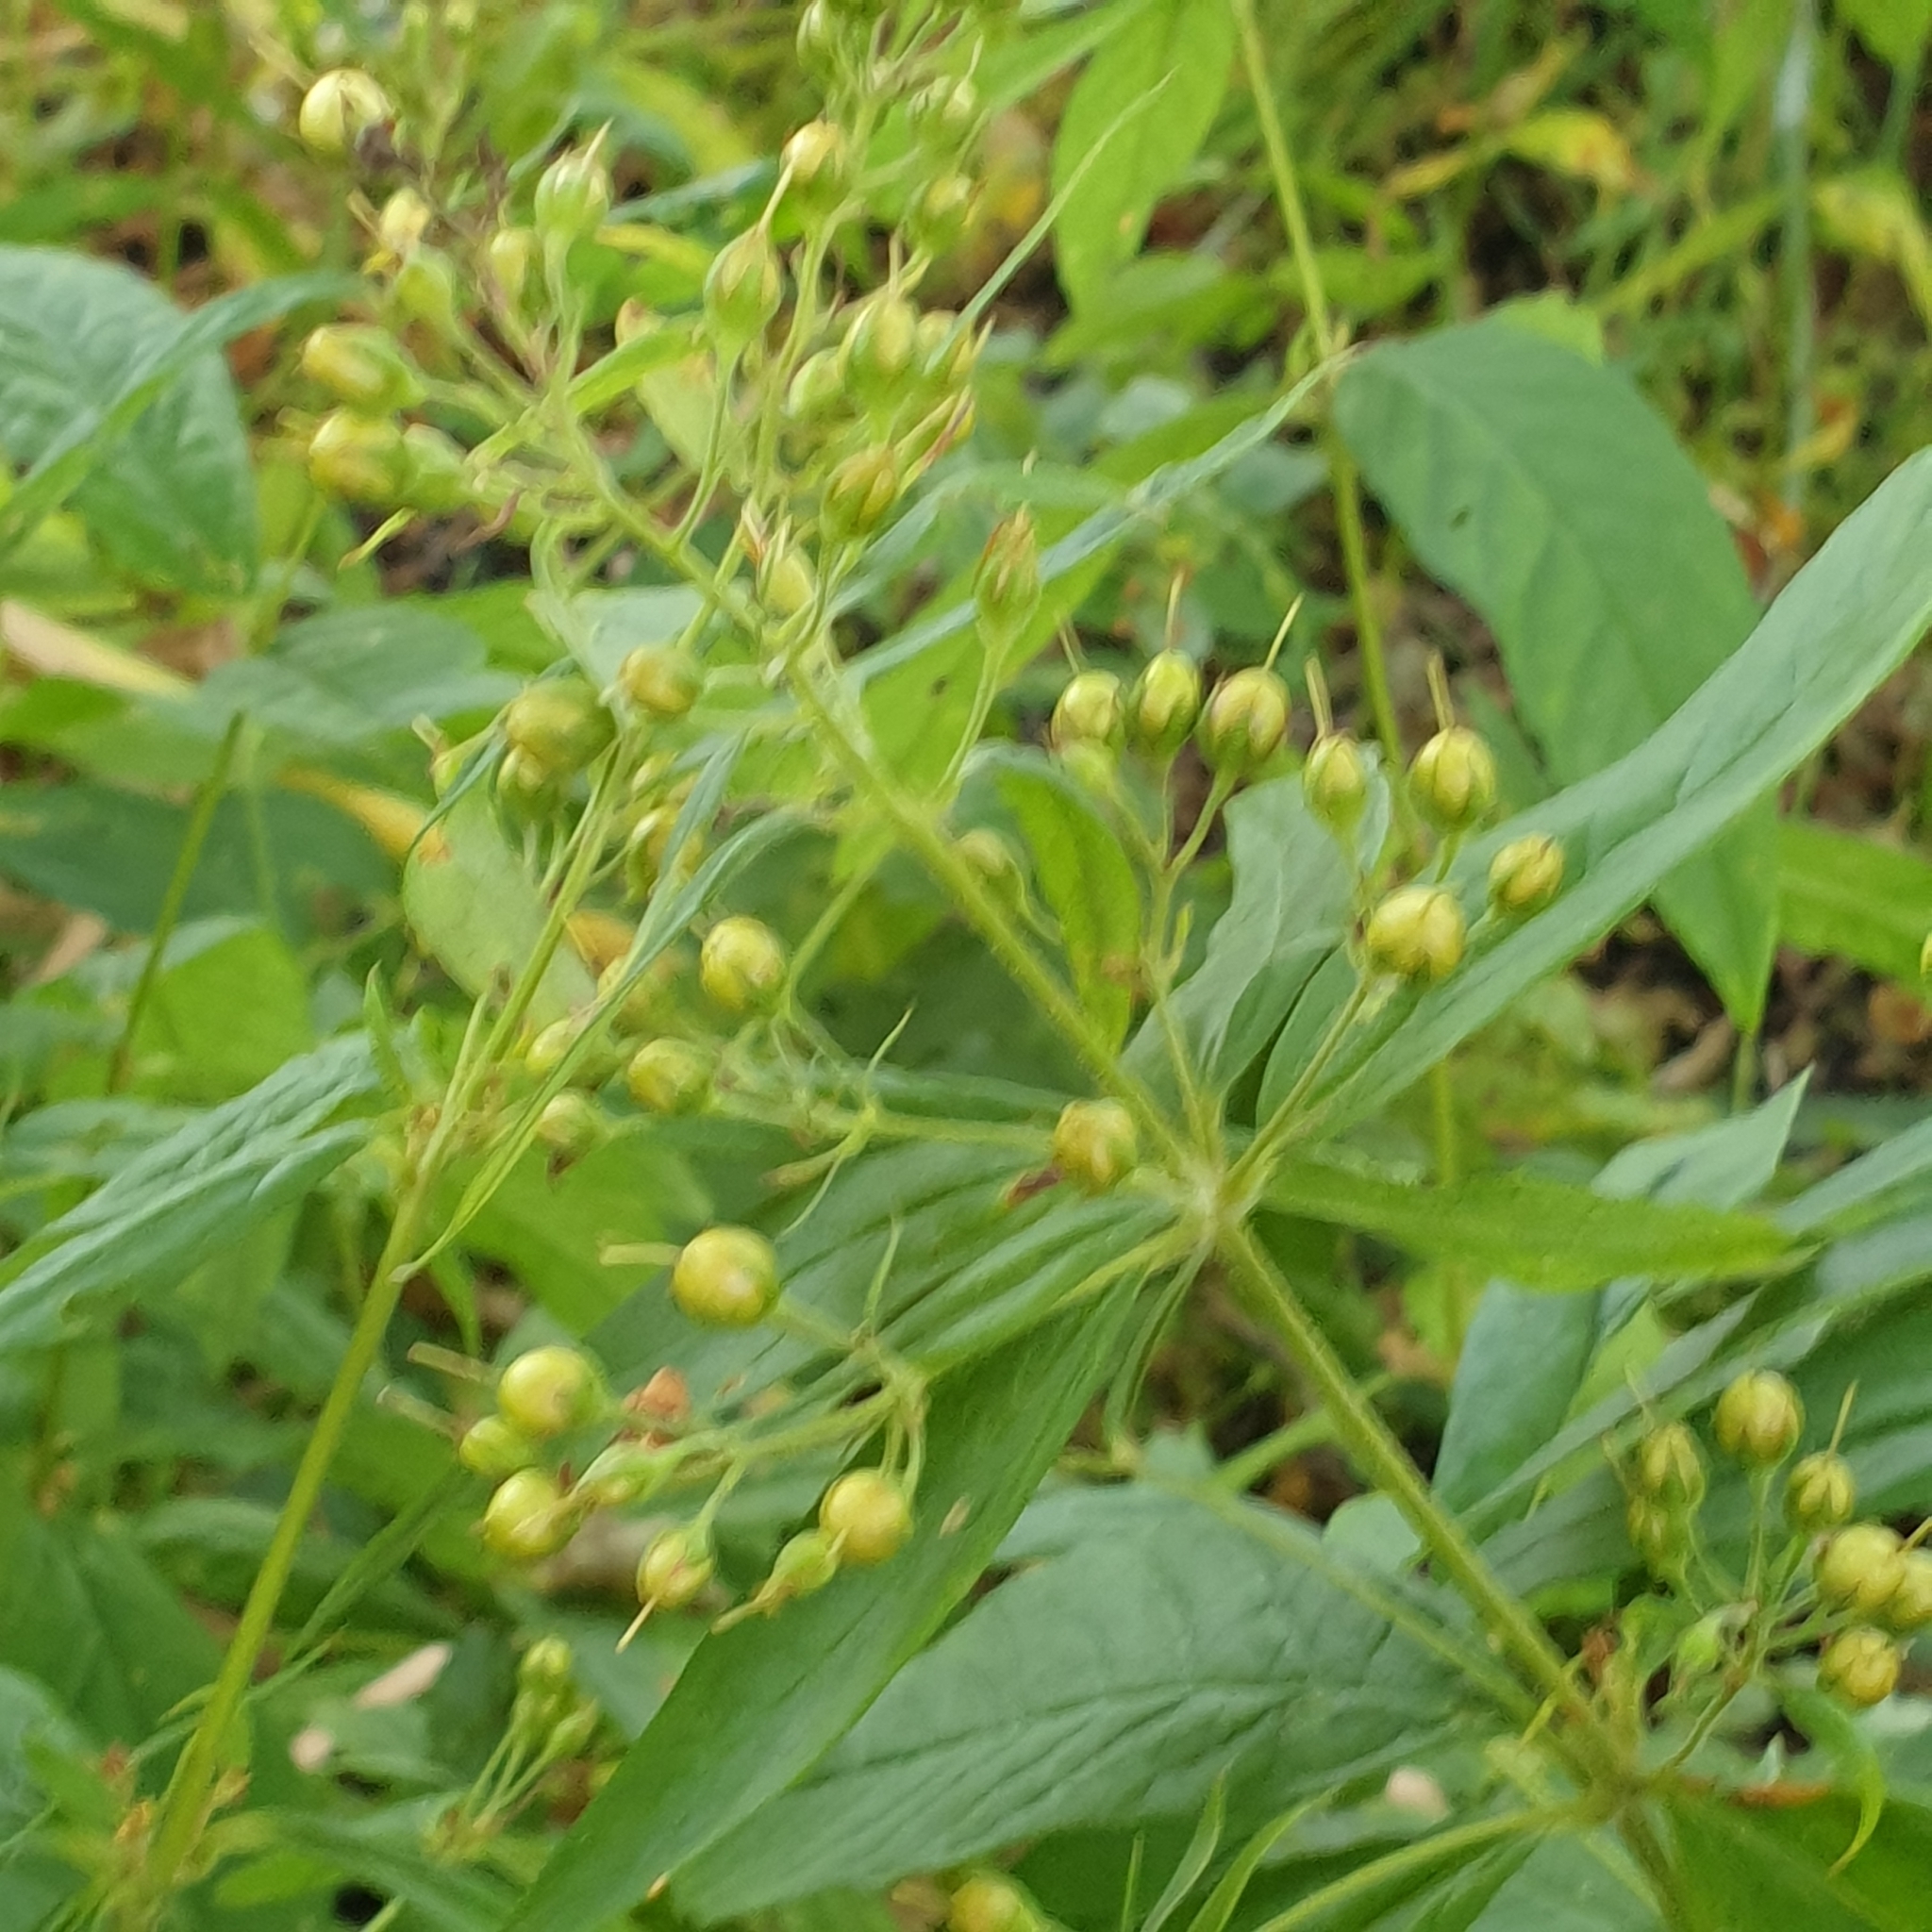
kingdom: Plantae
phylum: Tracheophyta
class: Magnoliopsida
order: Ericales
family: Primulaceae
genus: Lysimachia
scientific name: Lysimachia vulgaris
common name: Yellow loosestrife
